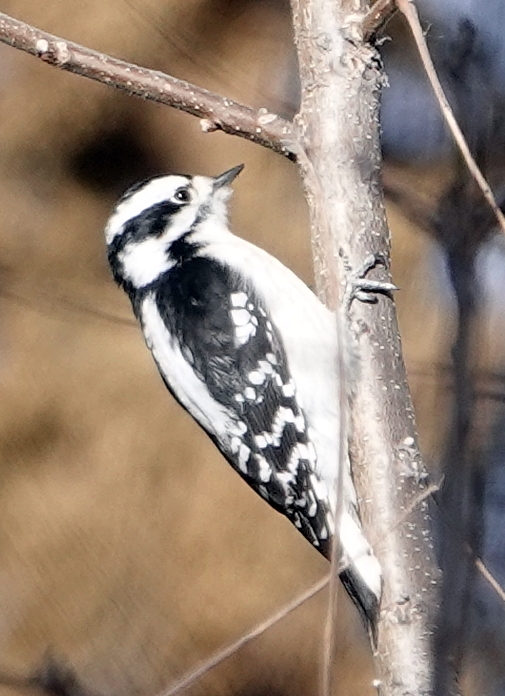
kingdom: Animalia
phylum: Chordata
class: Aves
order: Piciformes
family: Picidae
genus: Dryobates
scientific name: Dryobates pubescens
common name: Downy woodpecker
